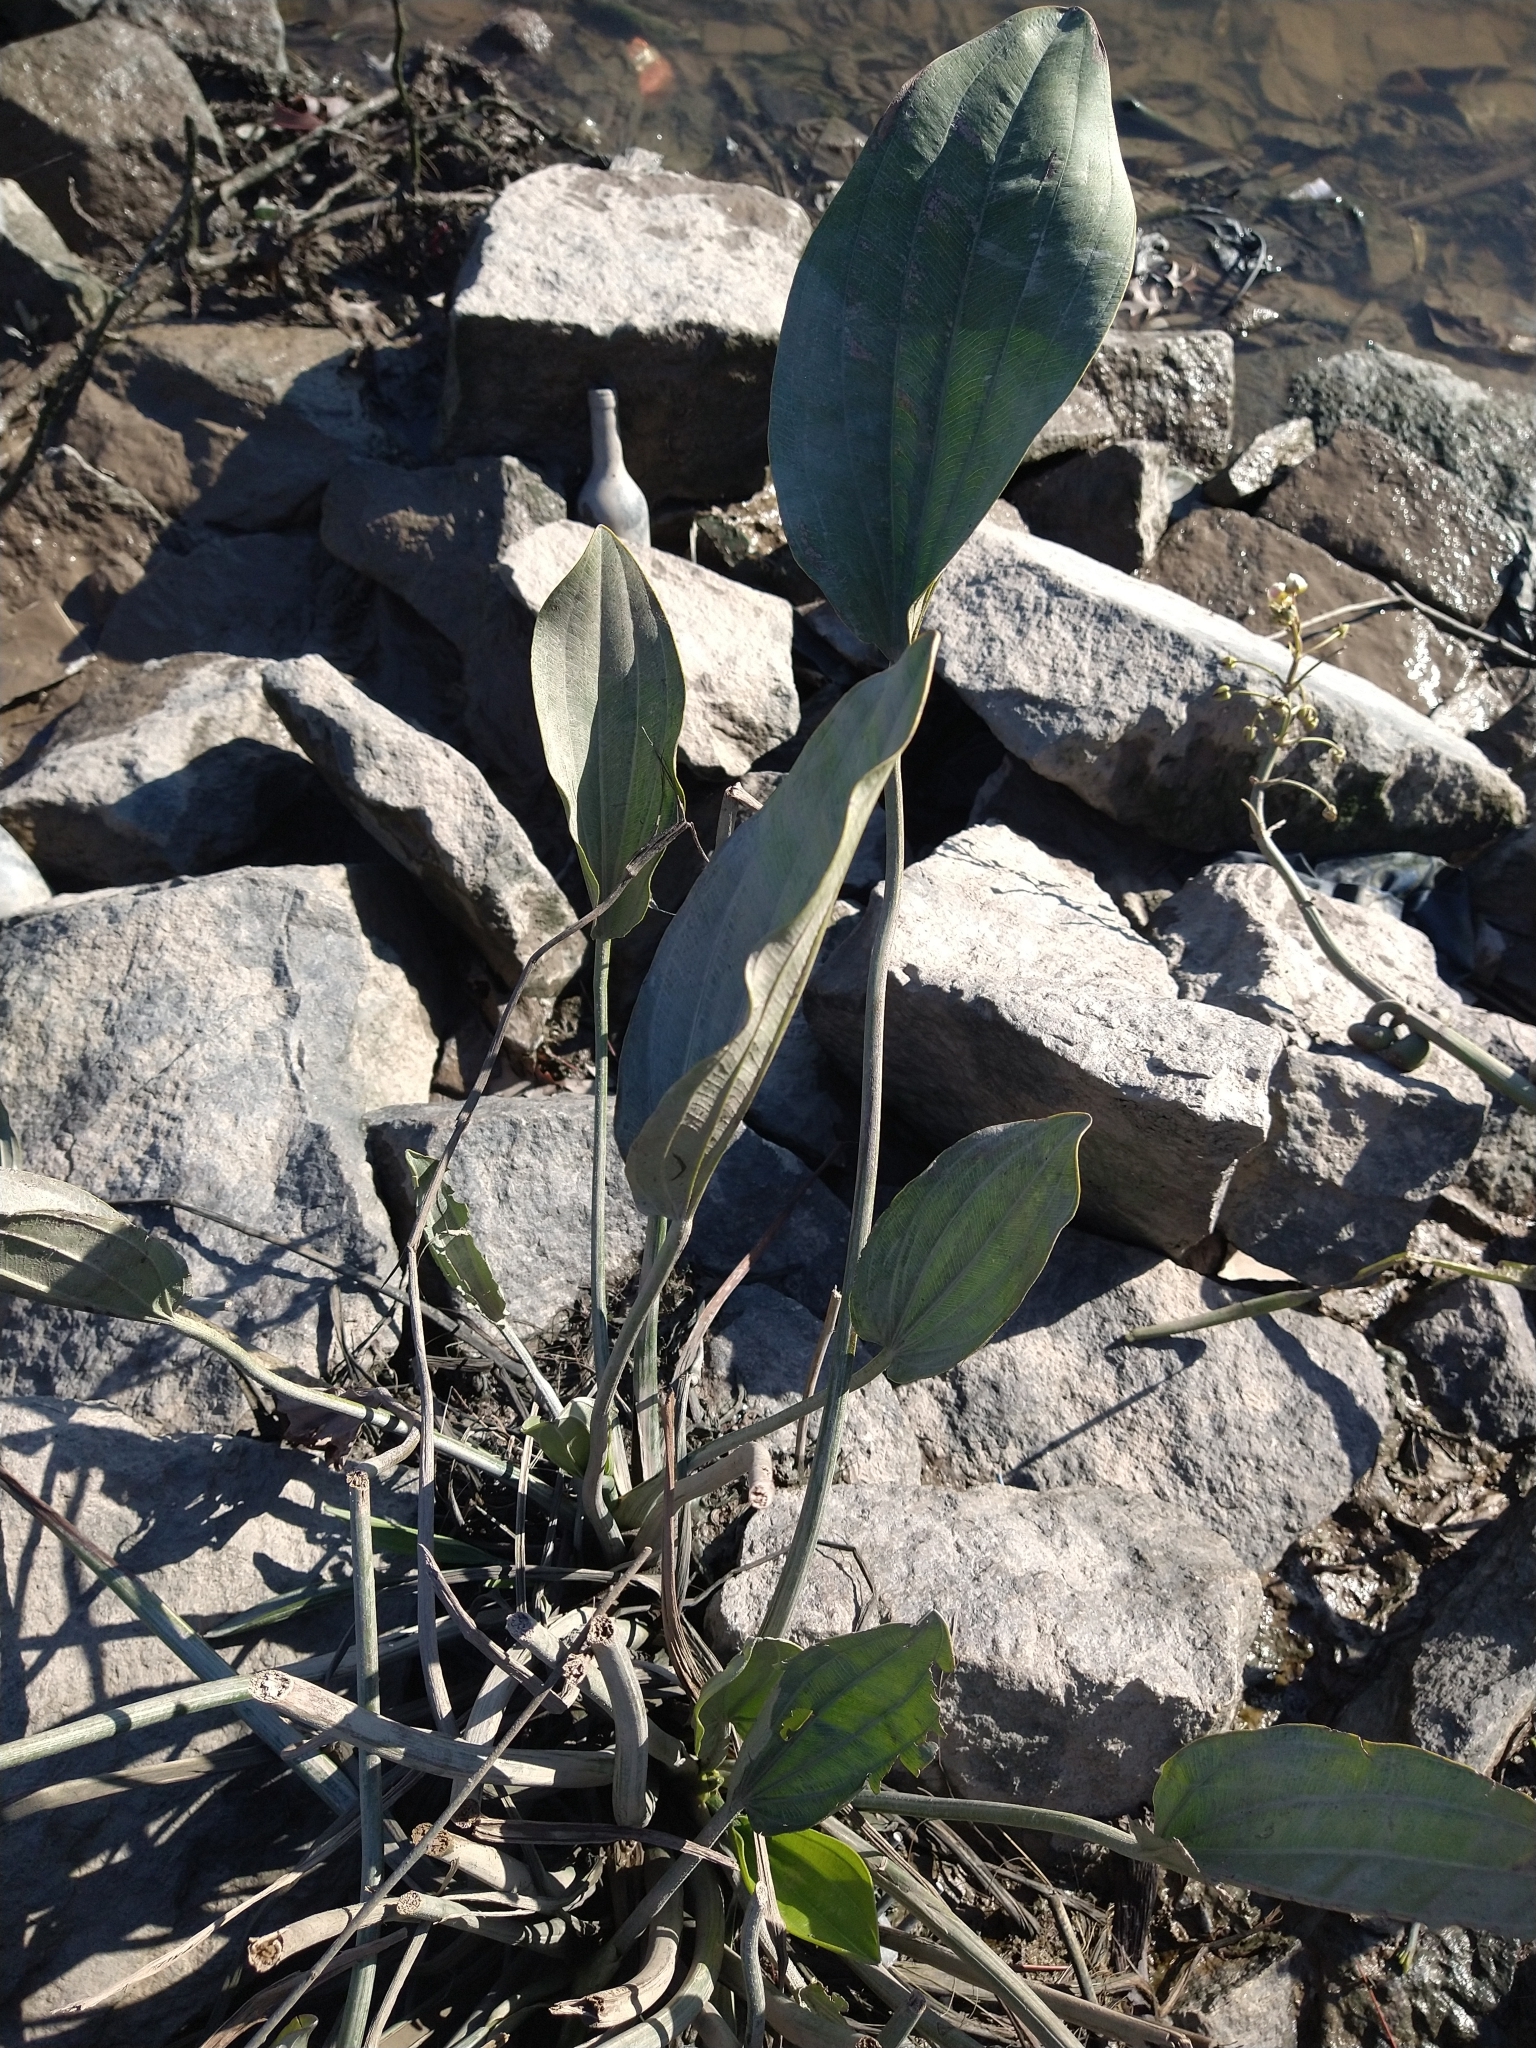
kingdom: Plantae
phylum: Tracheophyta
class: Liliopsida
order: Alismatales
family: Alismataceae
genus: Aquarius
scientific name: Aquarius grandiflorus
